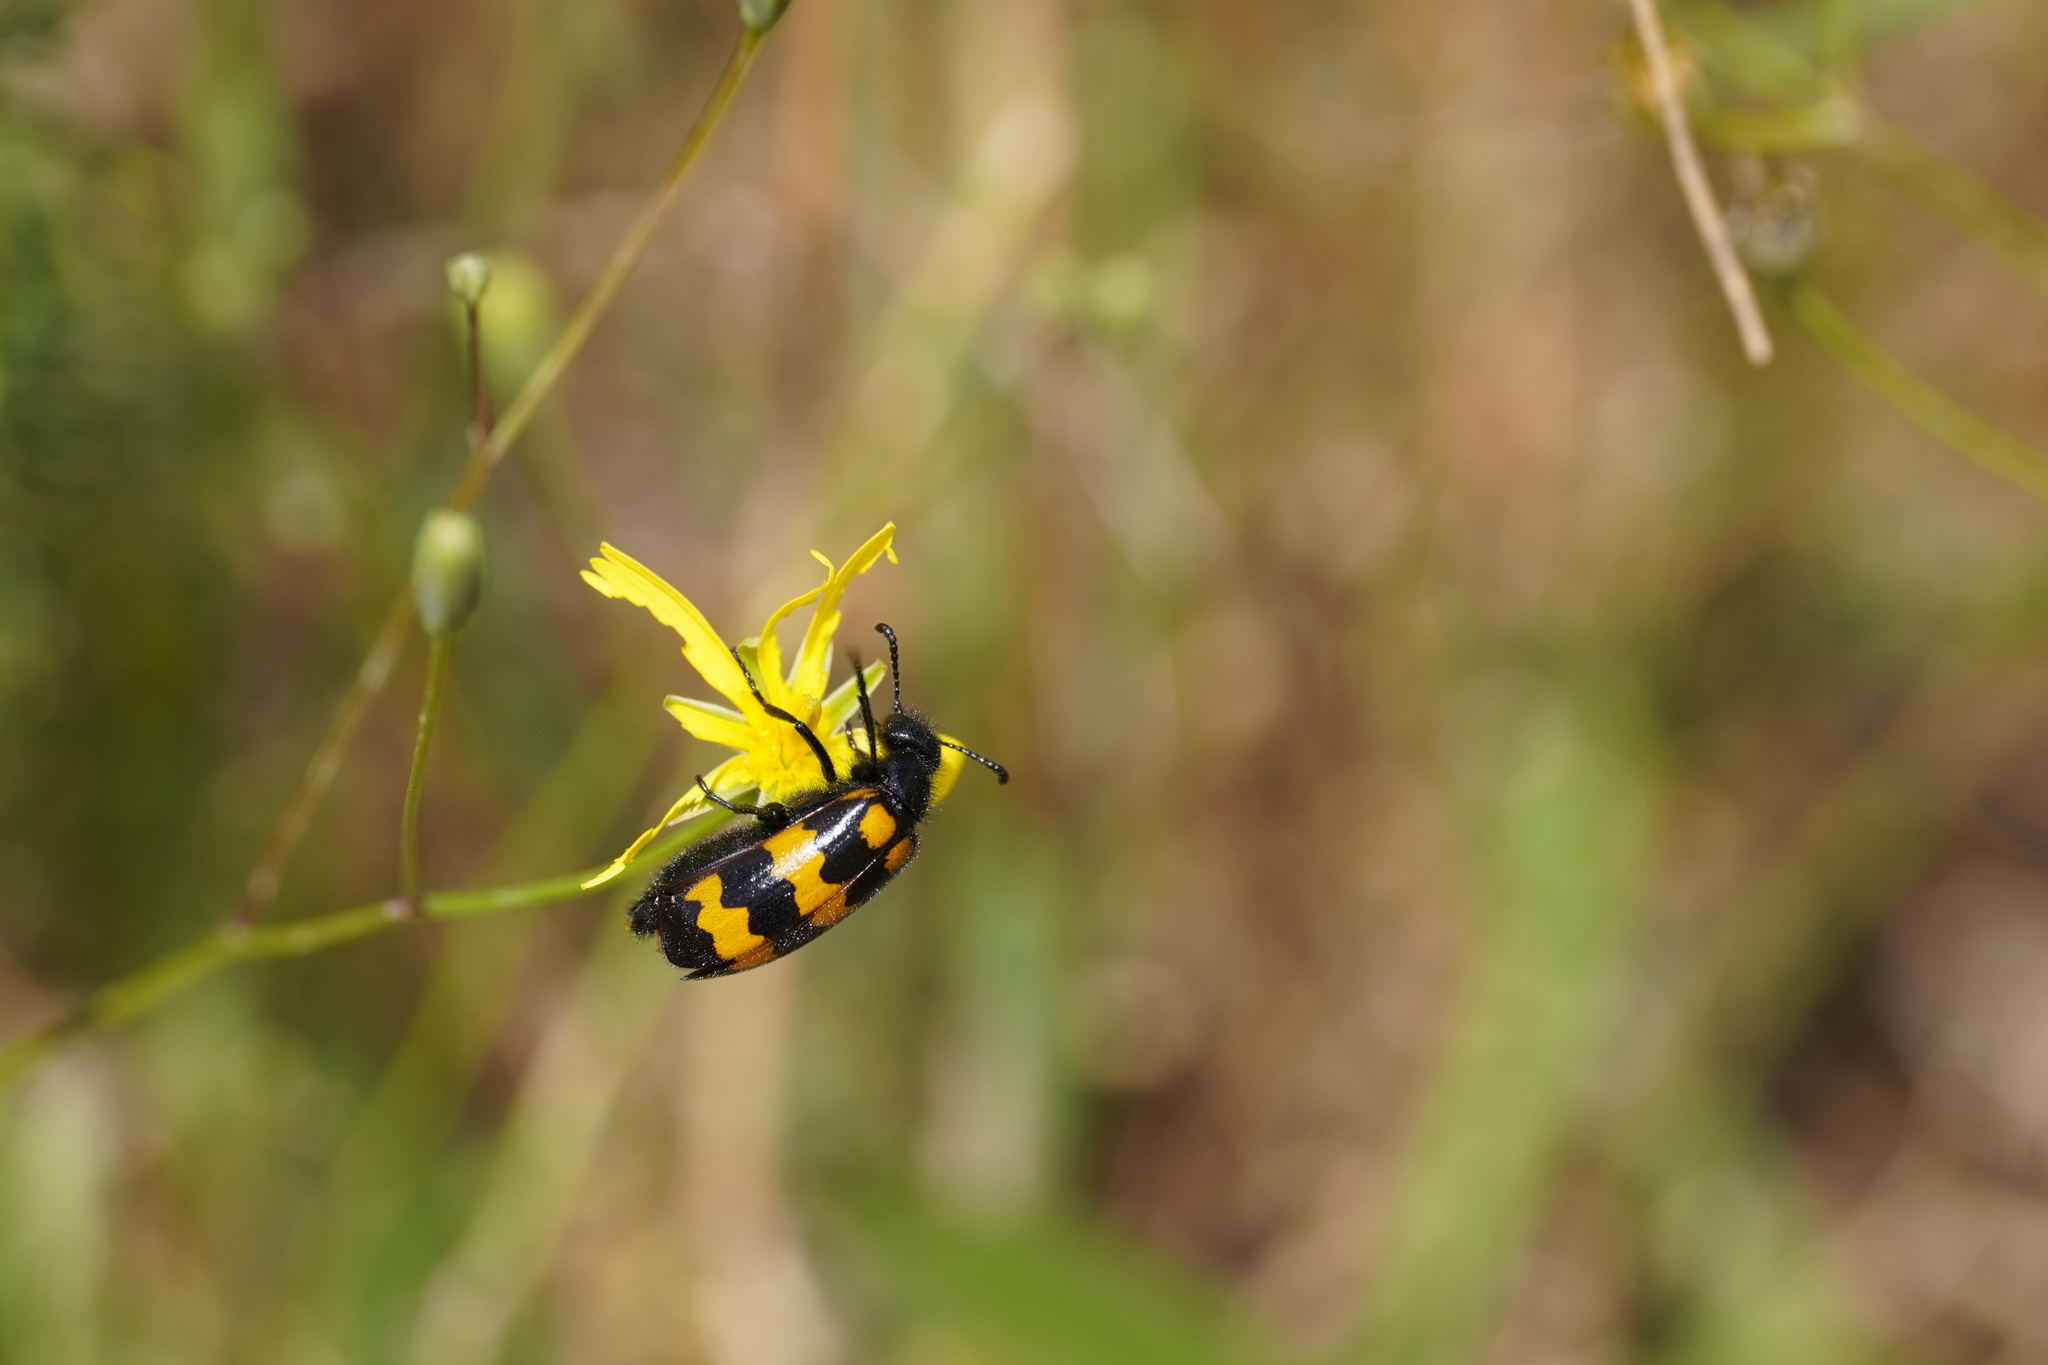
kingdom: Animalia
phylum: Arthropoda
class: Insecta
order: Coleoptera
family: Meloidae
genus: Mylabris
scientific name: Mylabris variabilis
